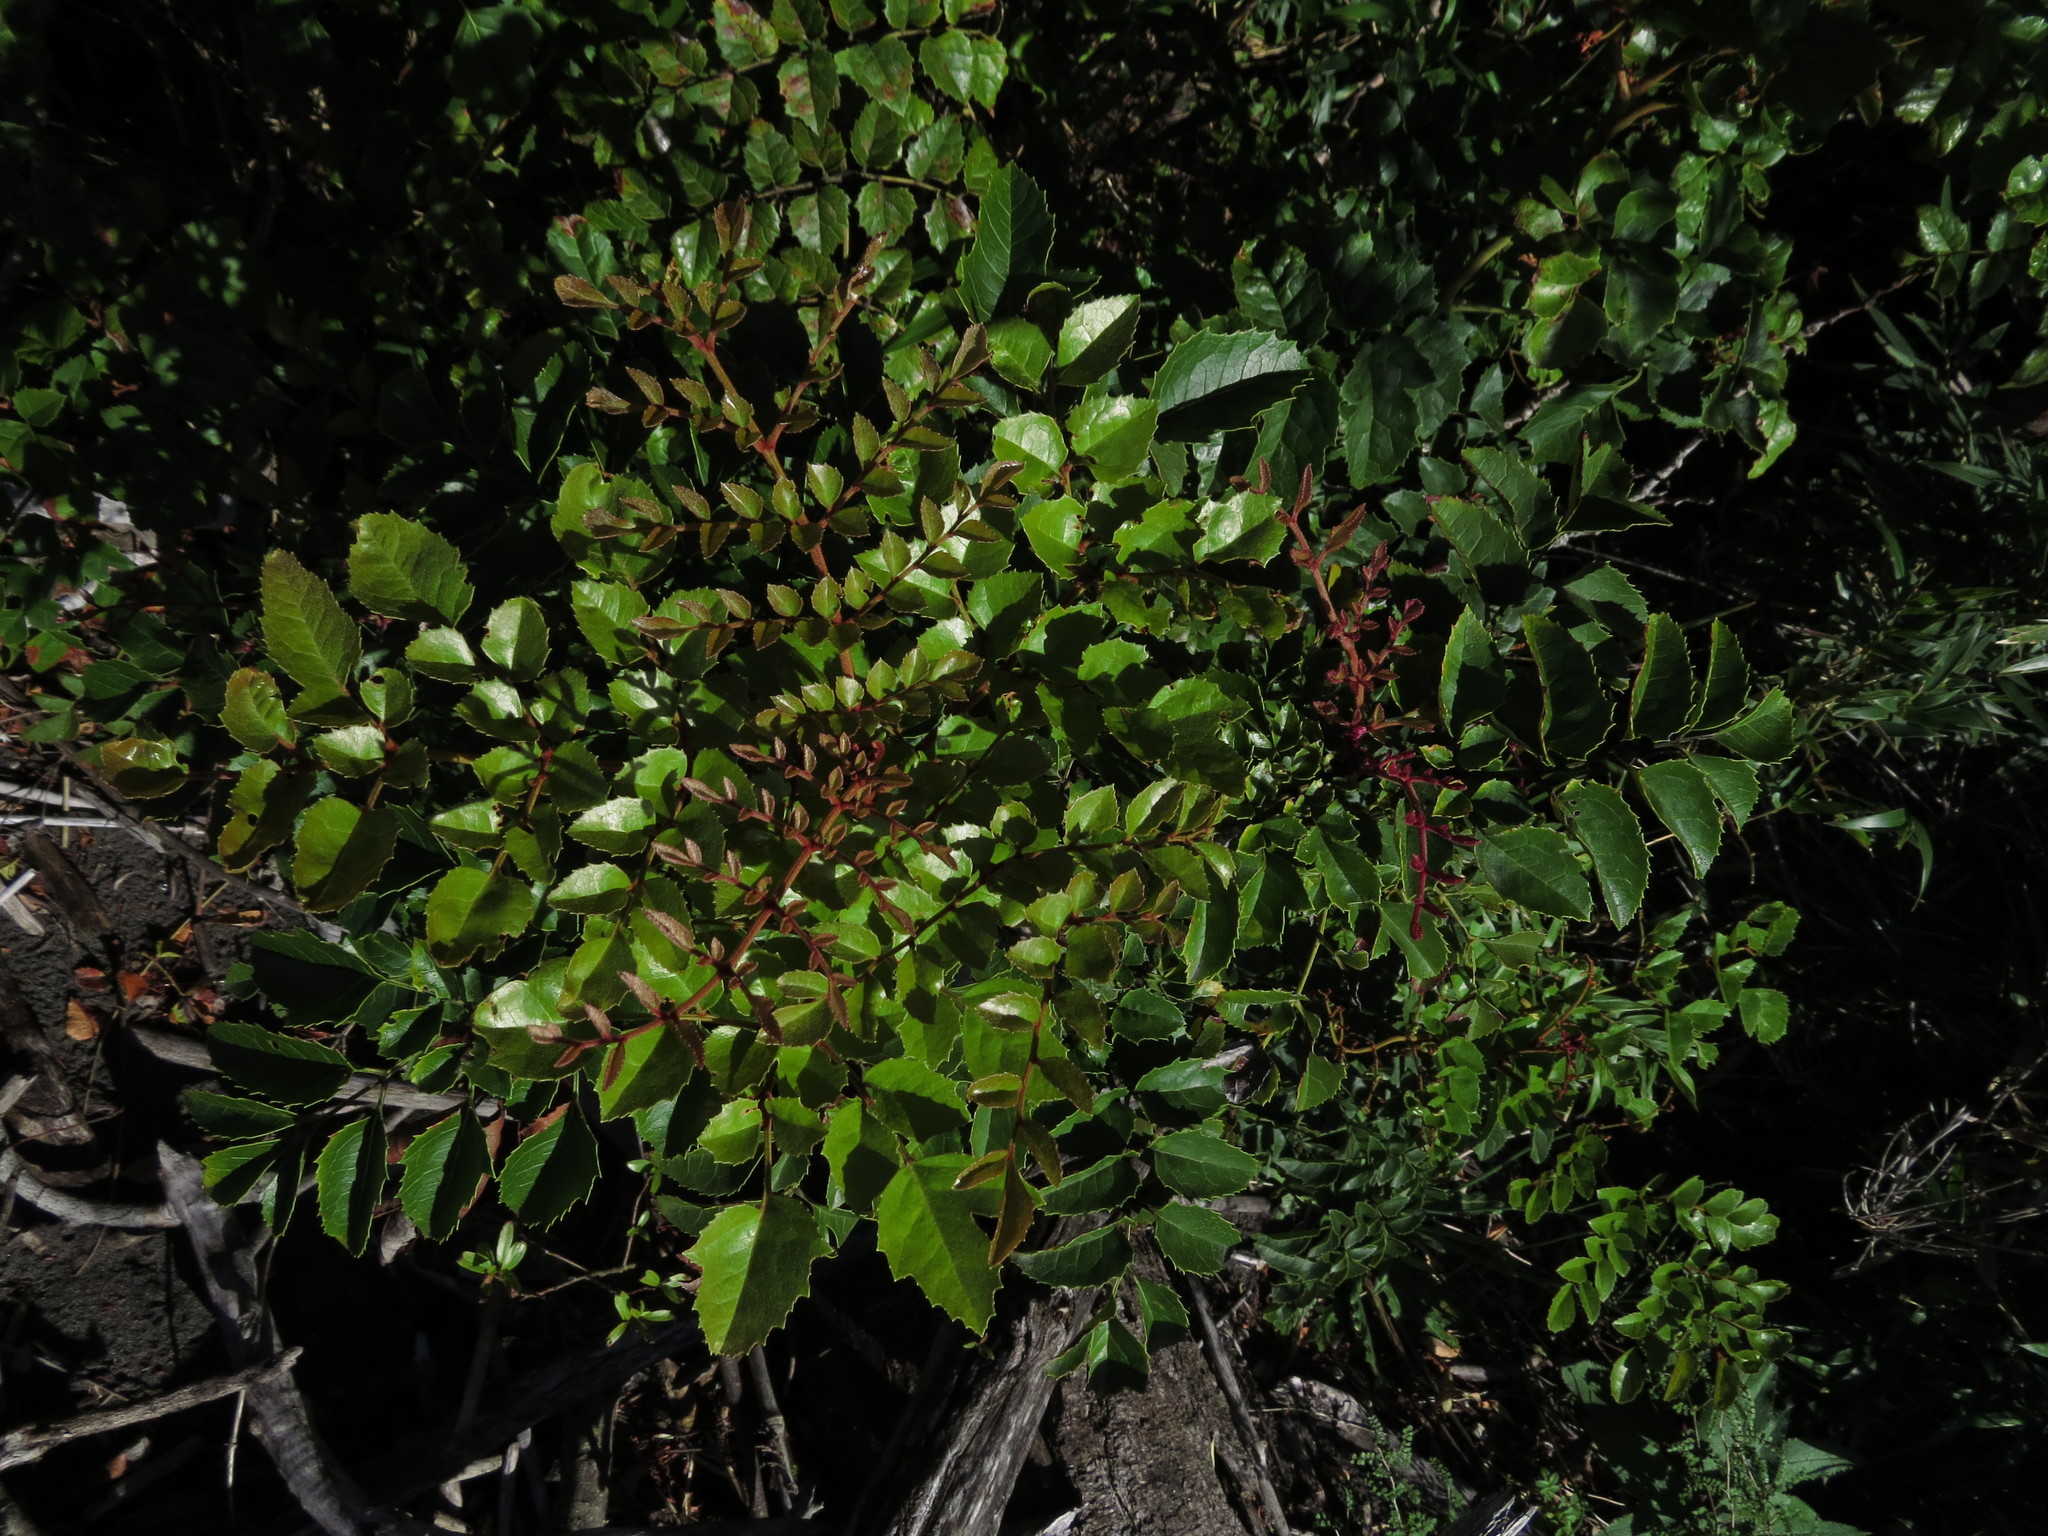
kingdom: Plantae
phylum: Tracheophyta
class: Magnoliopsida
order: Proteales
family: Proteaceae
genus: Gevuina
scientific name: Gevuina avellana
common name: Chilean hazel
